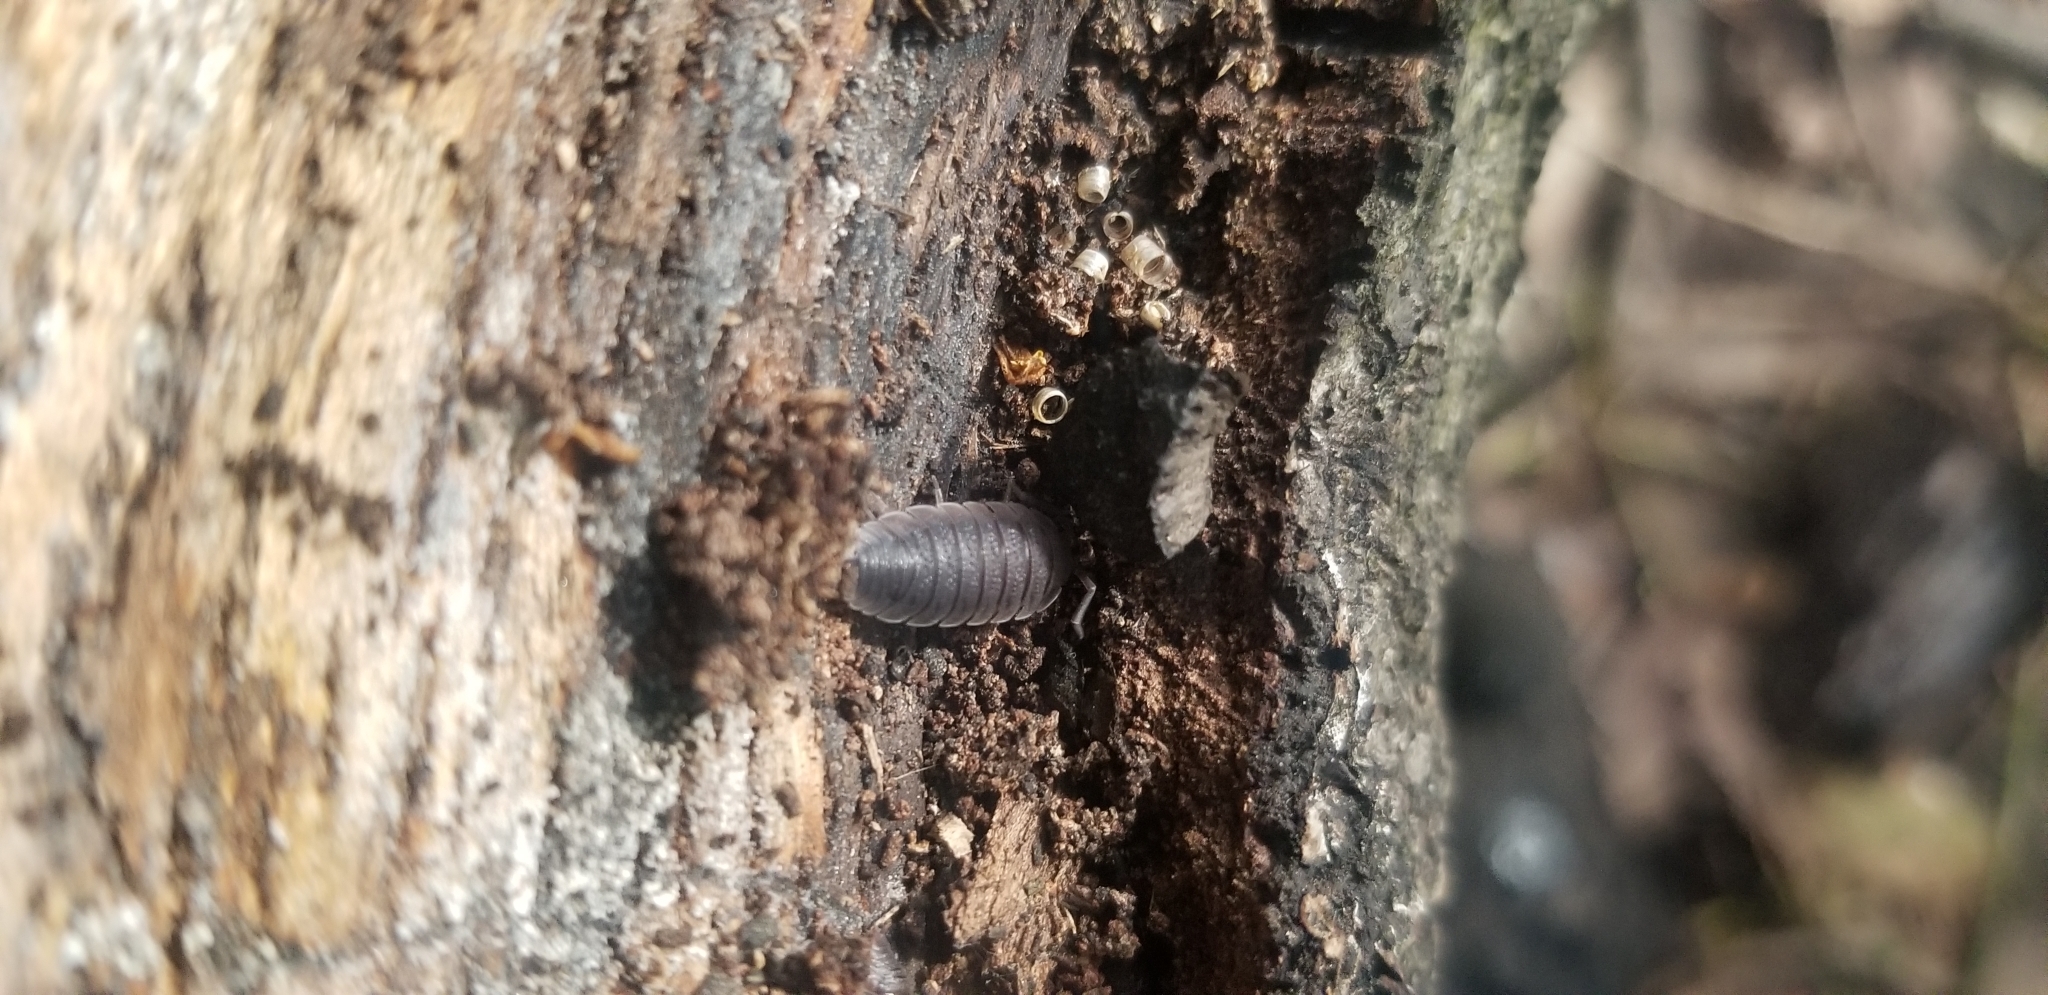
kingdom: Animalia
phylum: Arthropoda
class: Malacostraca
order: Isopoda
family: Porcellionidae
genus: Porcellio
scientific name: Porcellio scaber
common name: Common rough woodlouse
